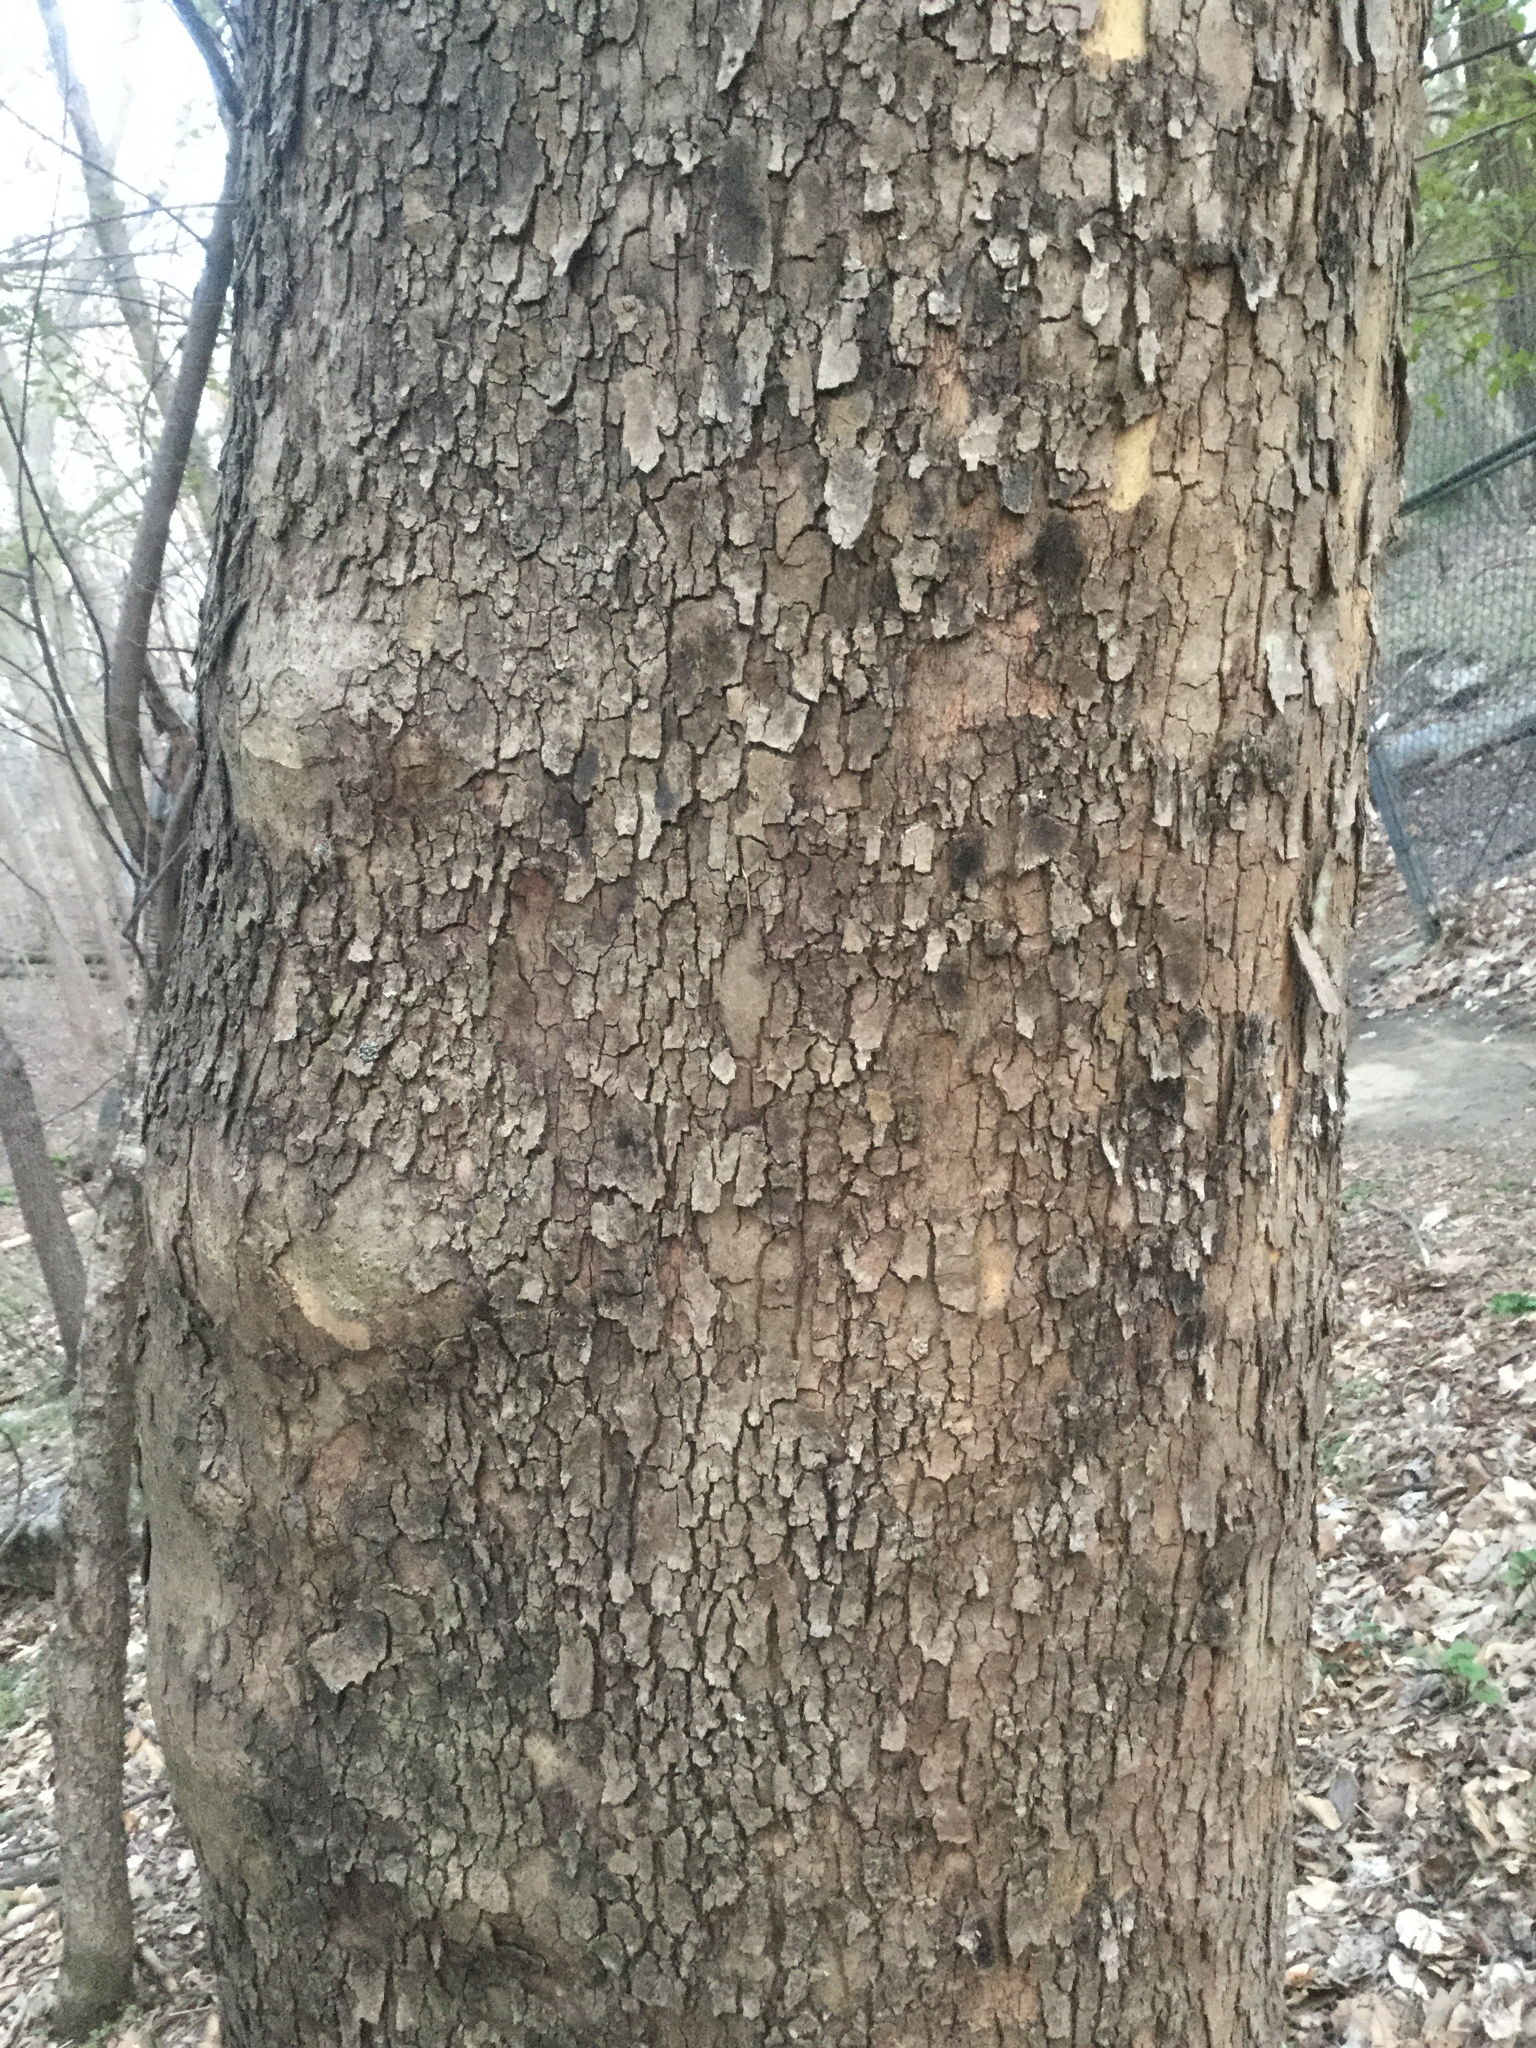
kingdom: Plantae
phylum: Tracheophyta
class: Magnoliopsida
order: Proteales
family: Platanaceae
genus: Platanus
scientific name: Platanus occidentalis
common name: American sycamore
